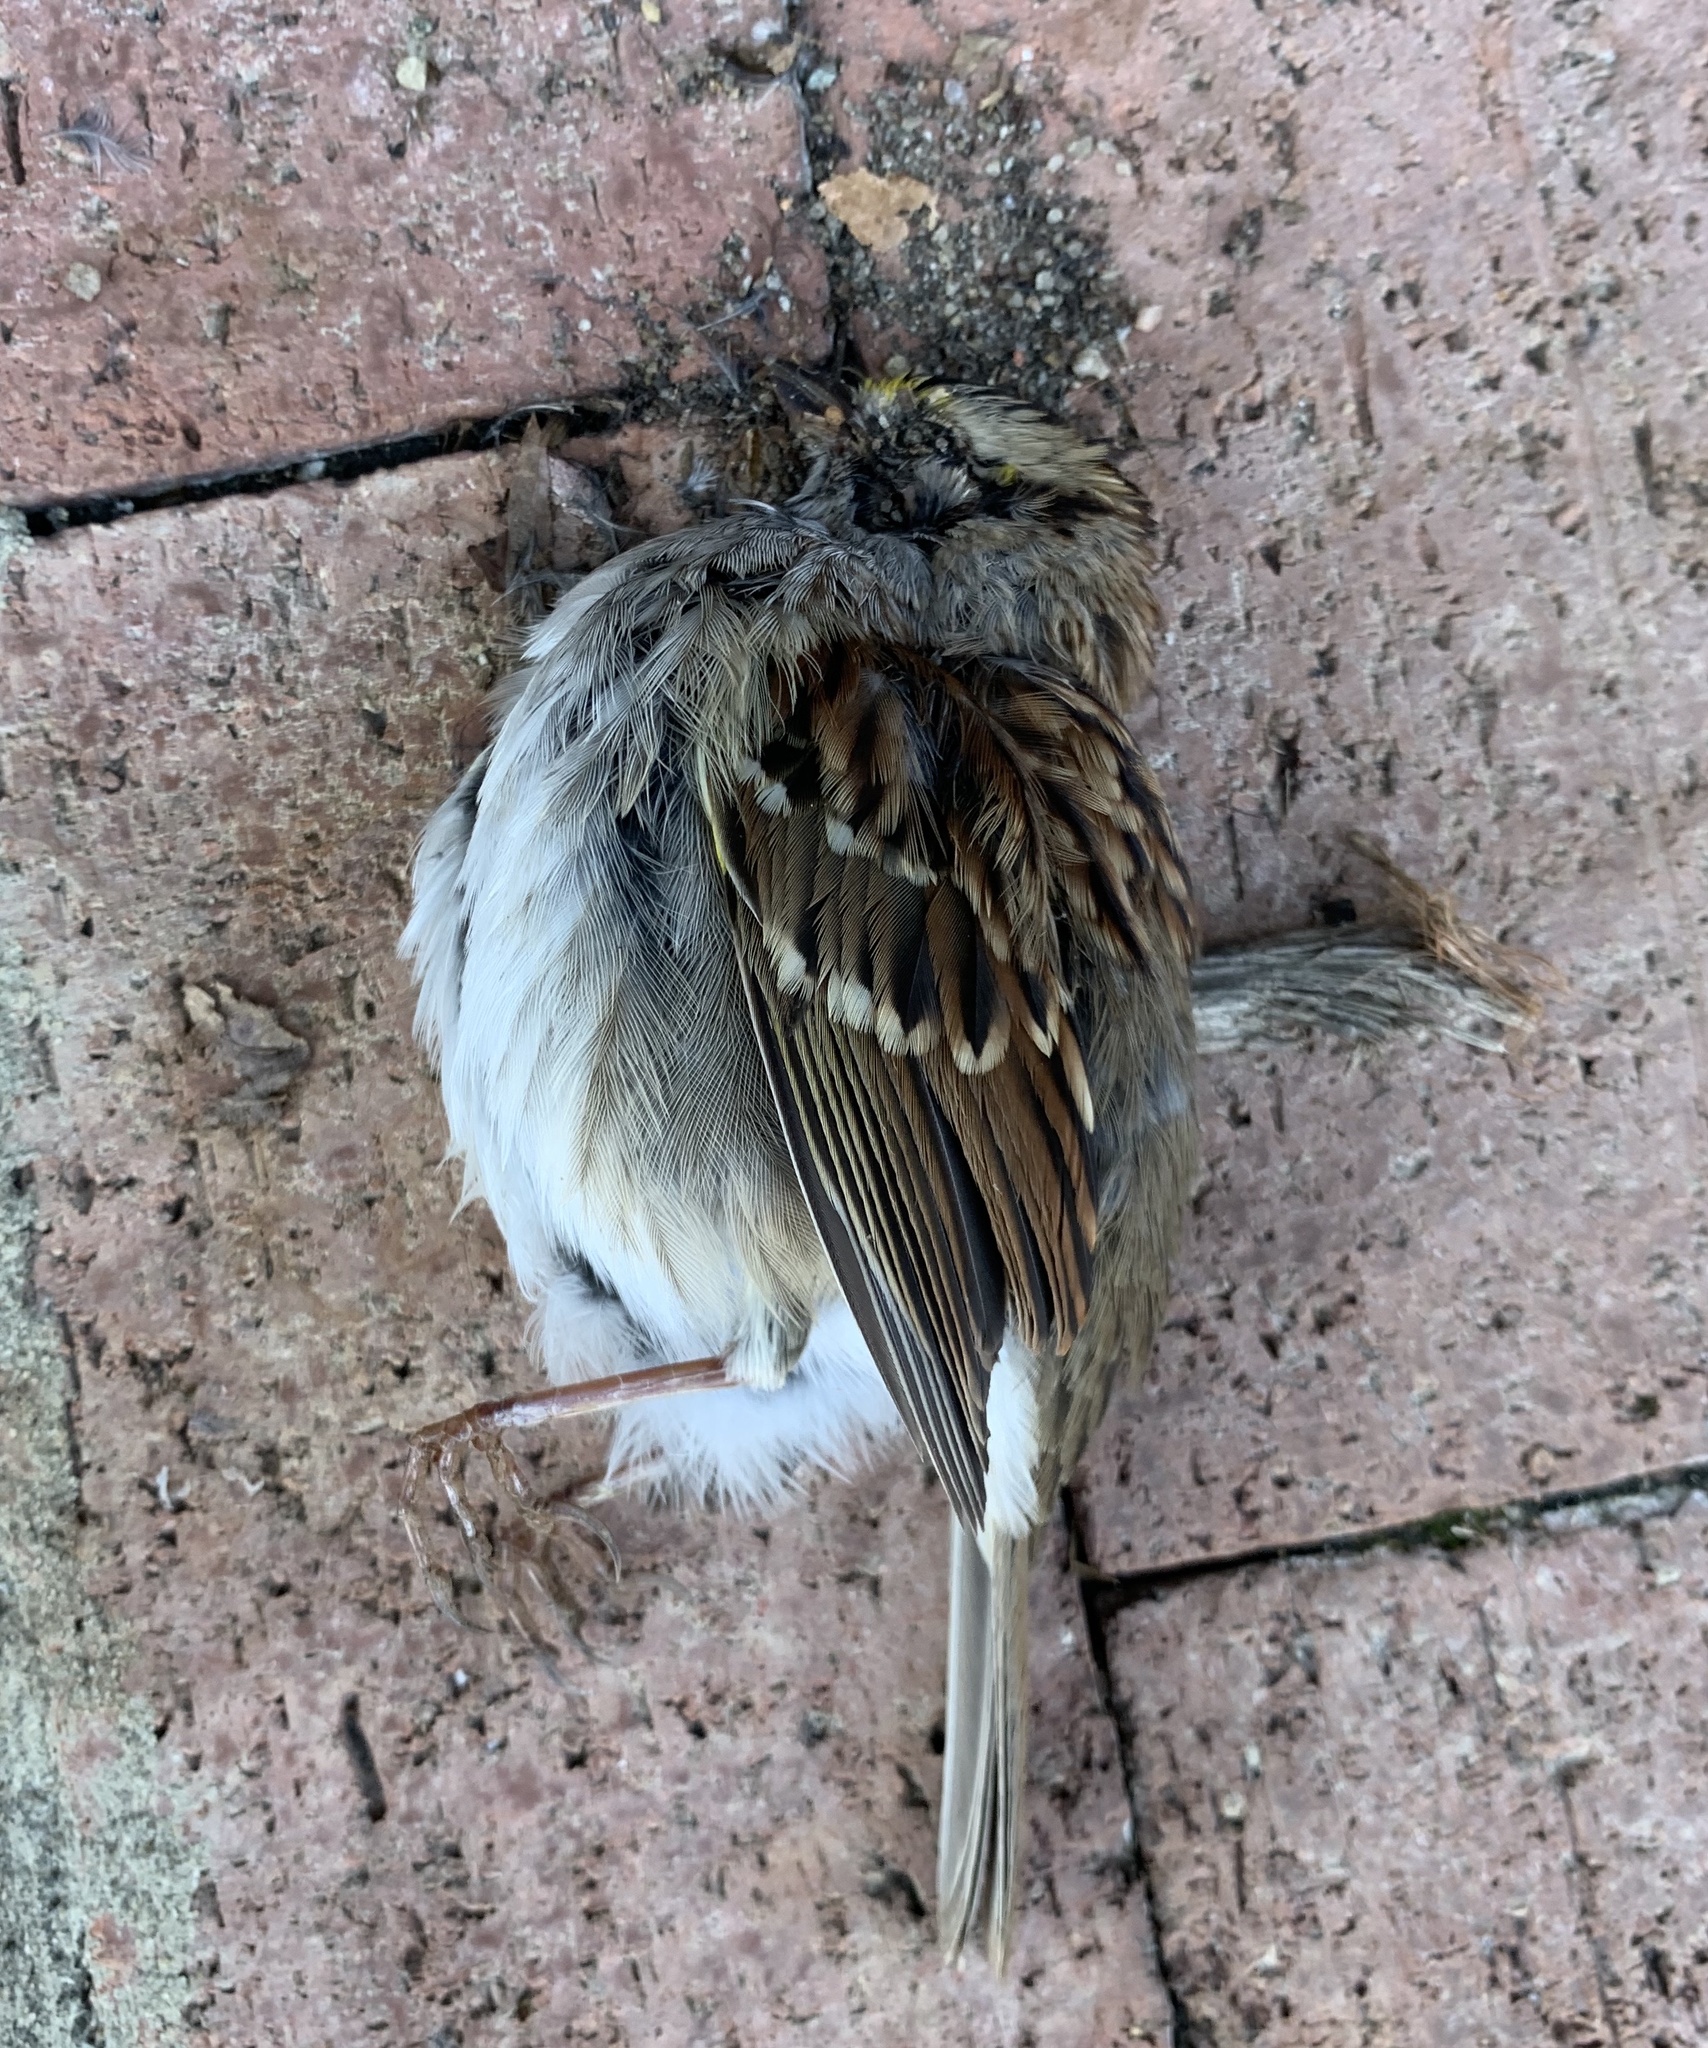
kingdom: Animalia
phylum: Chordata
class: Aves
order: Passeriformes
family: Passerellidae
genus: Zonotrichia
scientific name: Zonotrichia albicollis
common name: White-throated sparrow
